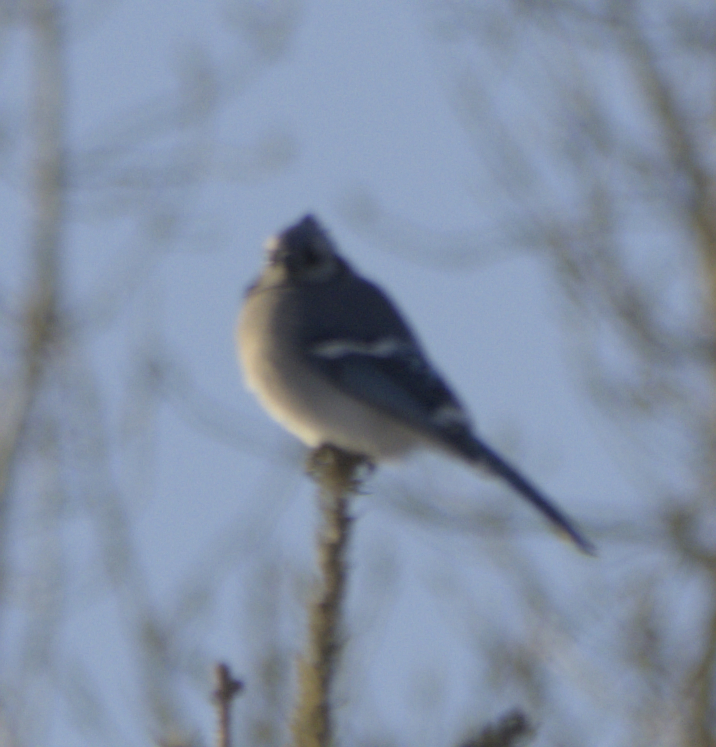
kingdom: Animalia
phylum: Chordata
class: Aves
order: Passeriformes
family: Corvidae
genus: Cyanocitta
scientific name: Cyanocitta cristata
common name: Blue jay
